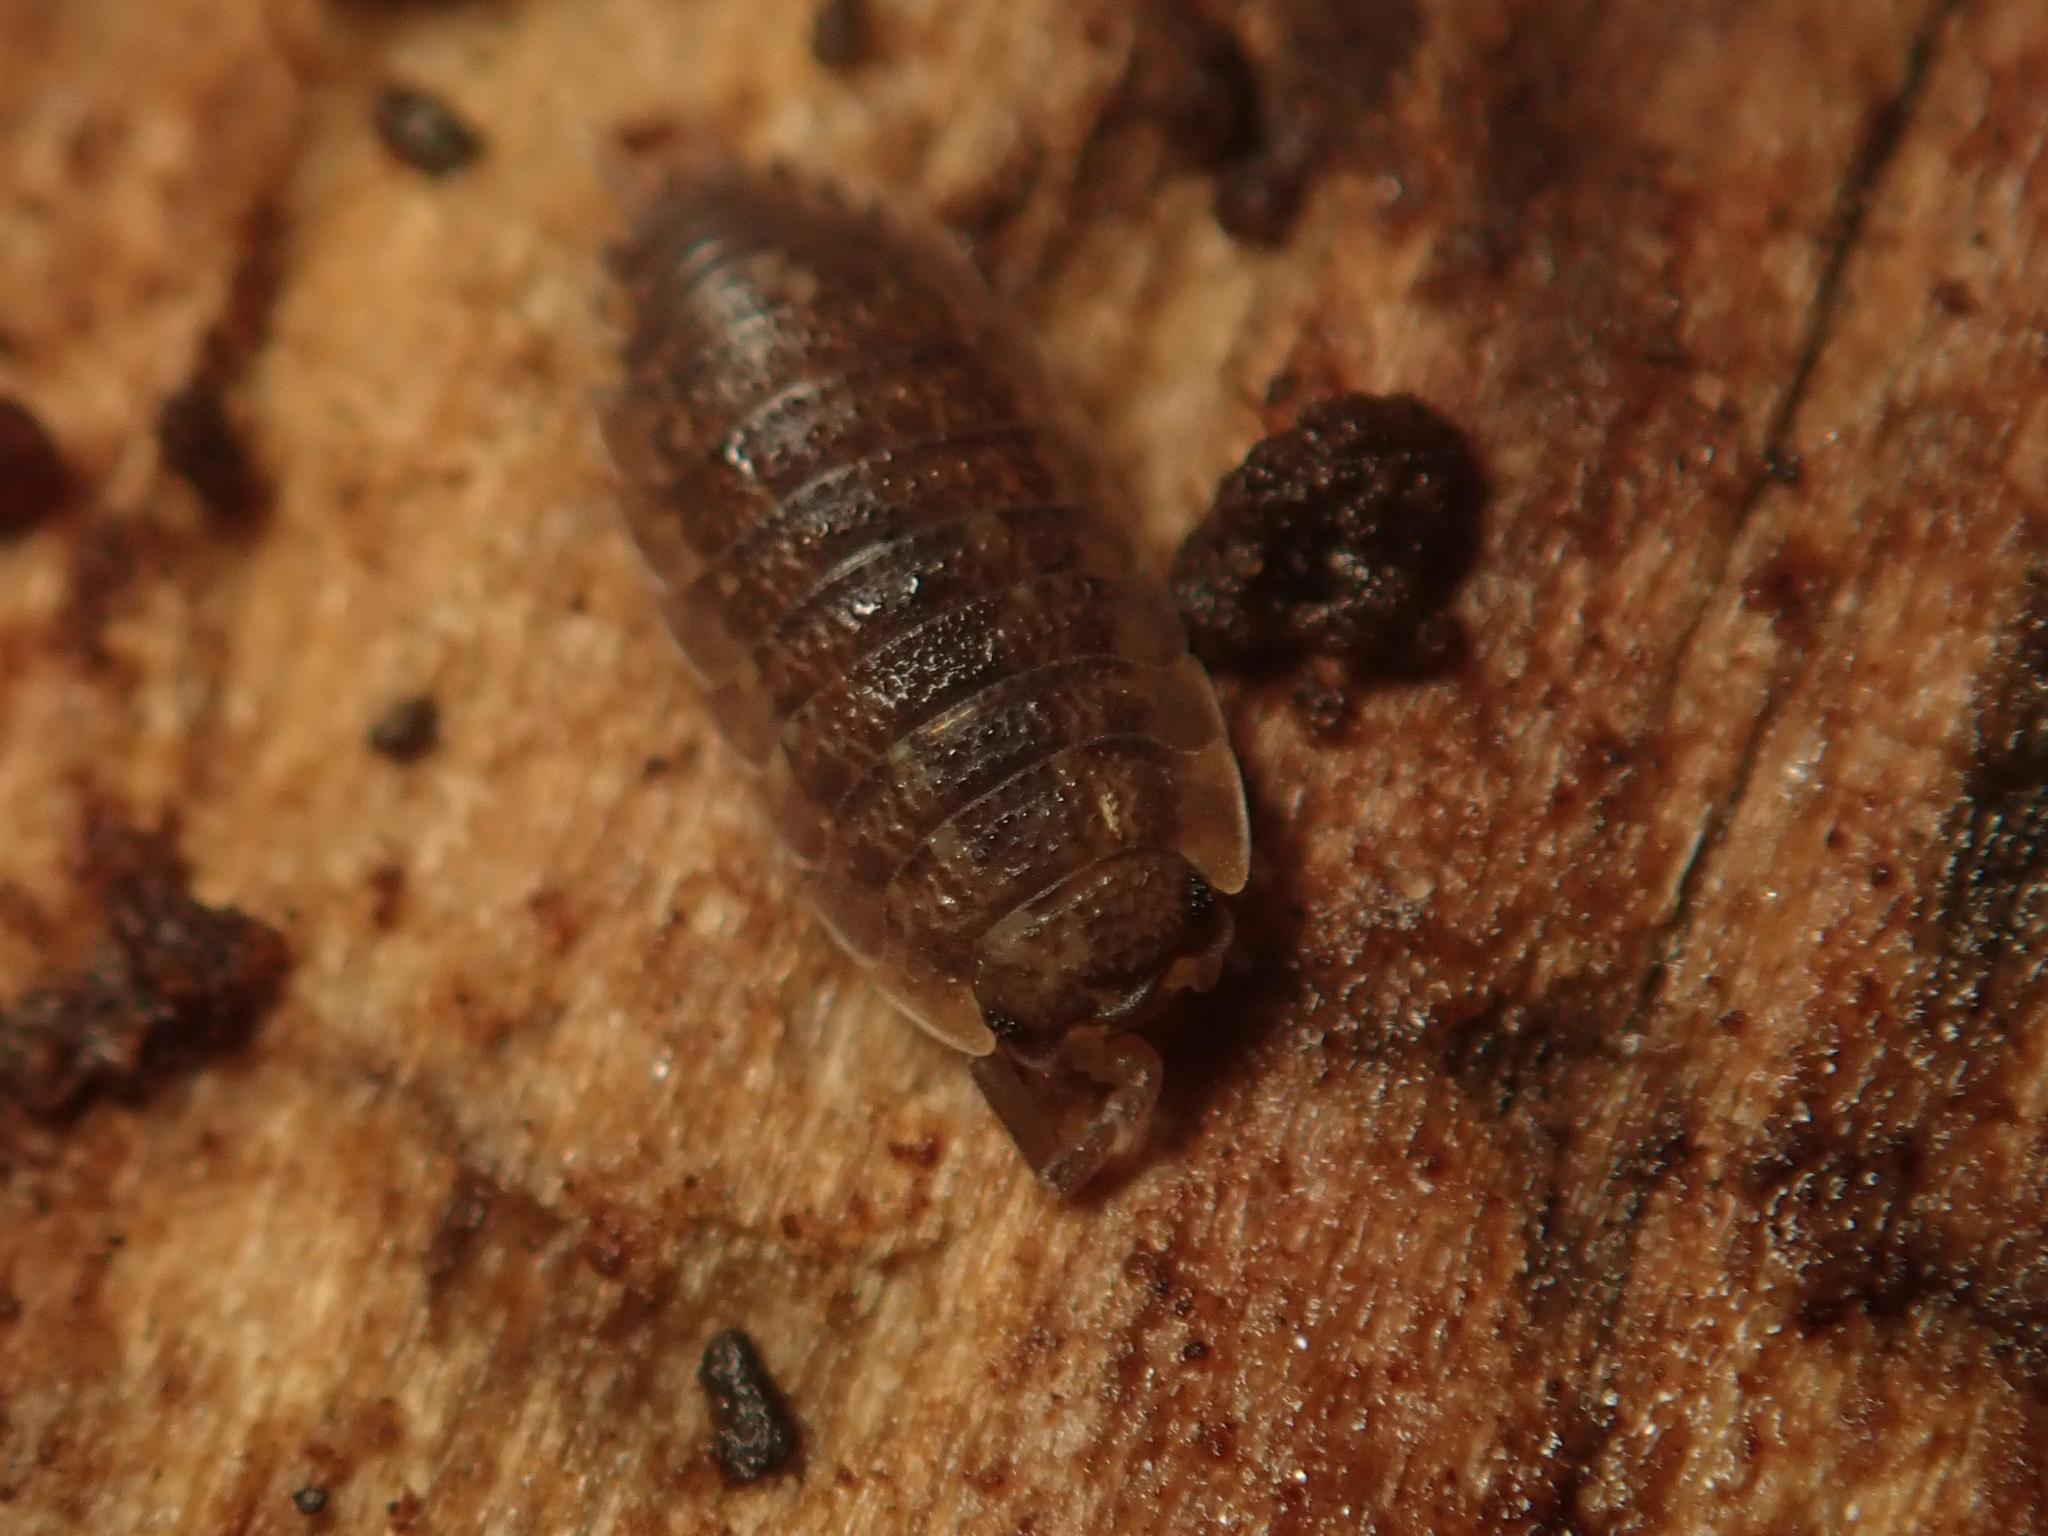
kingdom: Animalia
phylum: Arthropoda
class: Malacostraca
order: Isopoda
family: Porcellionidae
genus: Porcellio
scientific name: Porcellio scaber
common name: Common rough woodlouse
